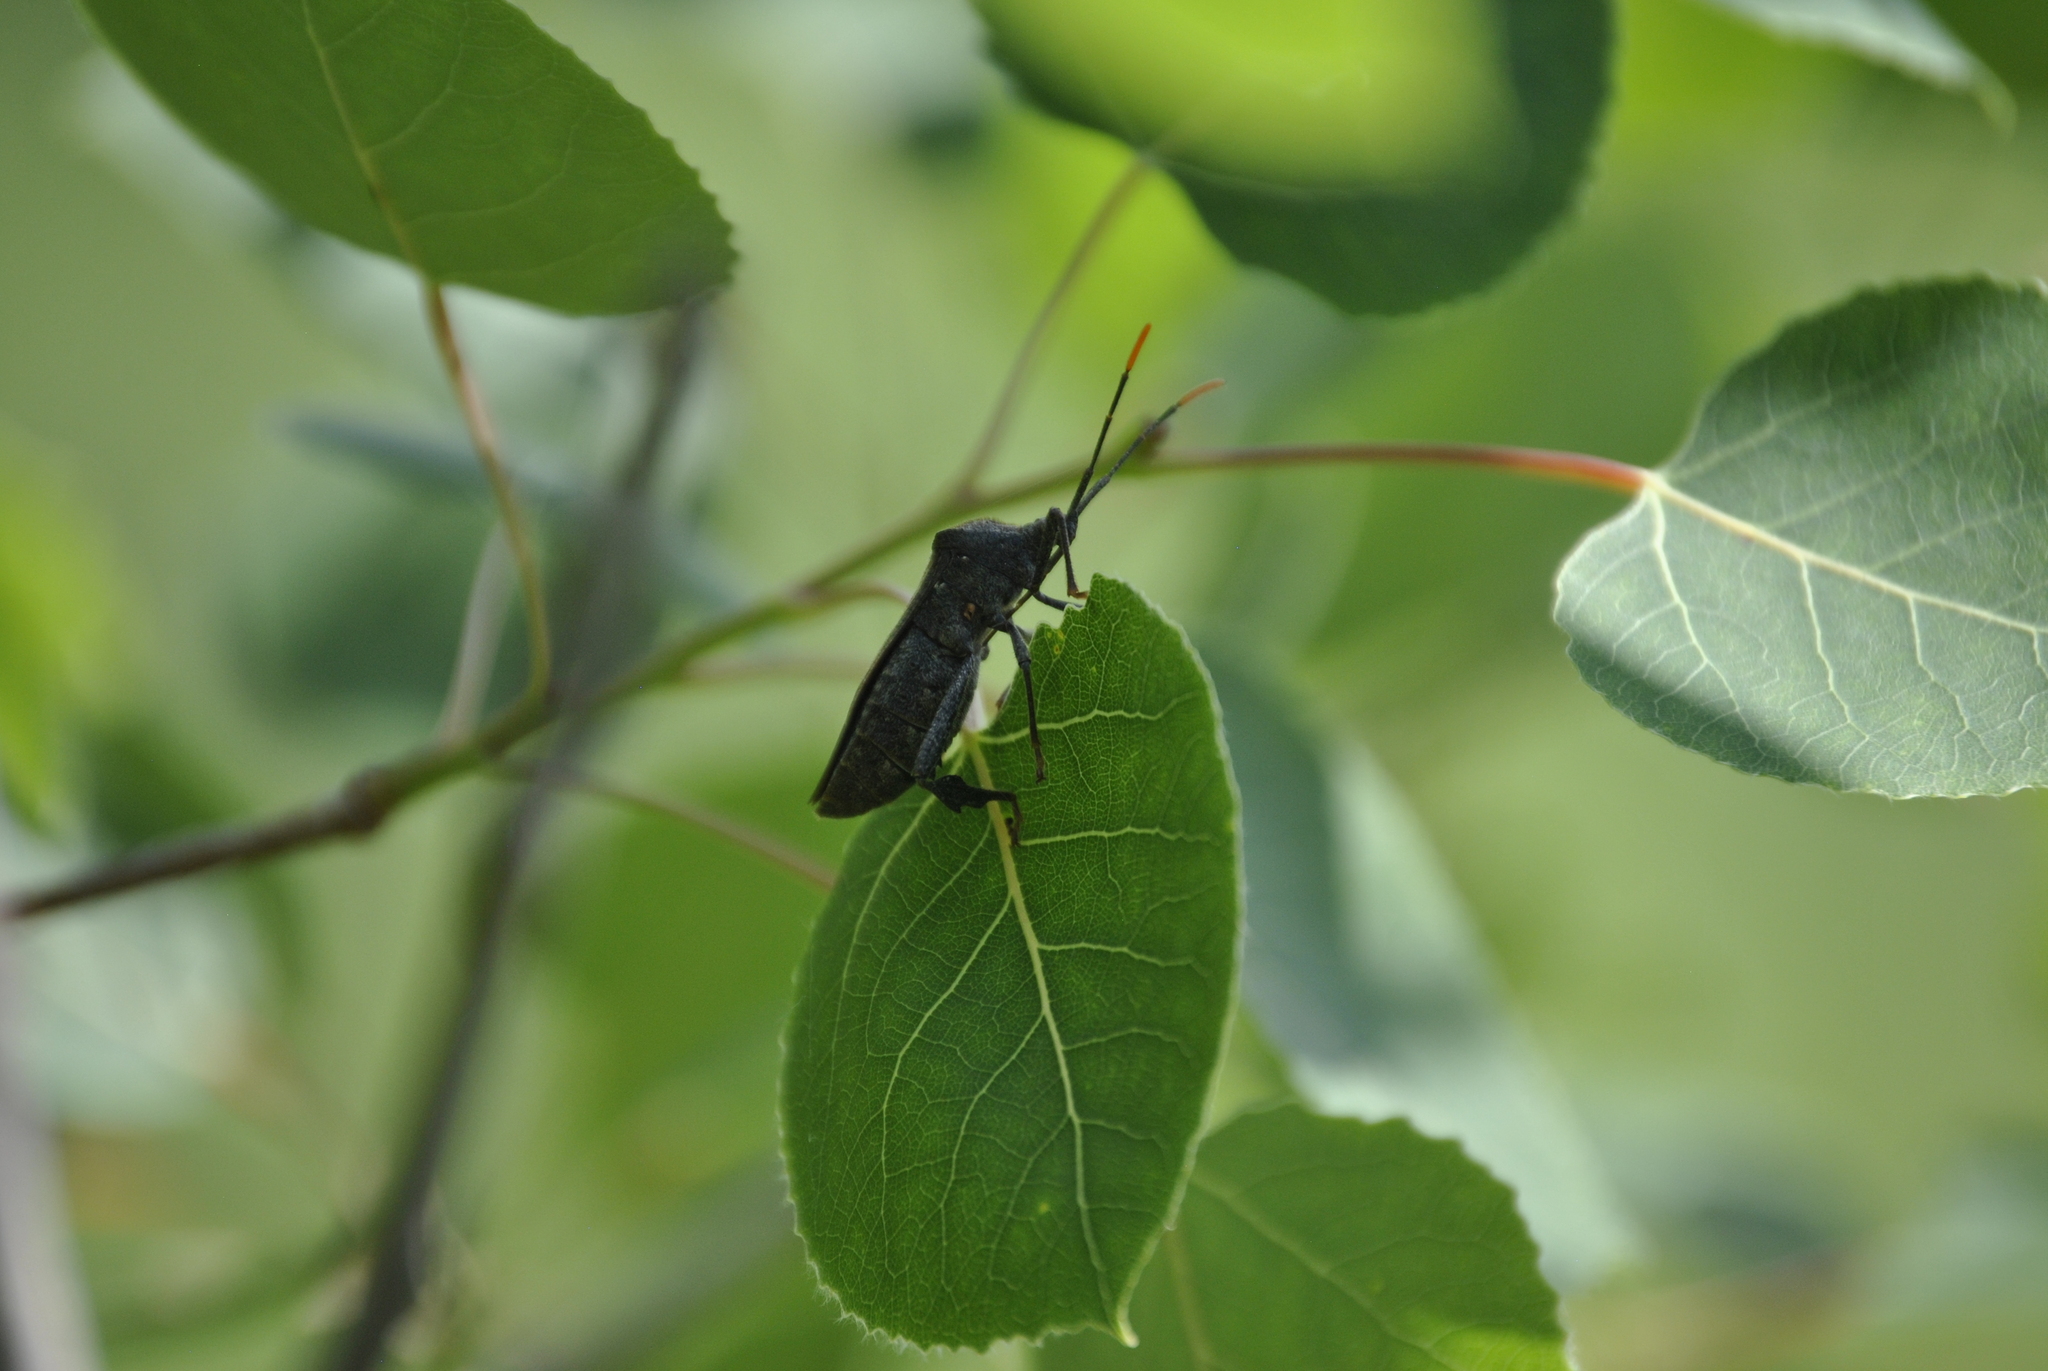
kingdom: Animalia
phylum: Arthropoda
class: Insecta
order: Hemiptera
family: Coreidae
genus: Acanthocephala
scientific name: Acanthocephala terminalis
